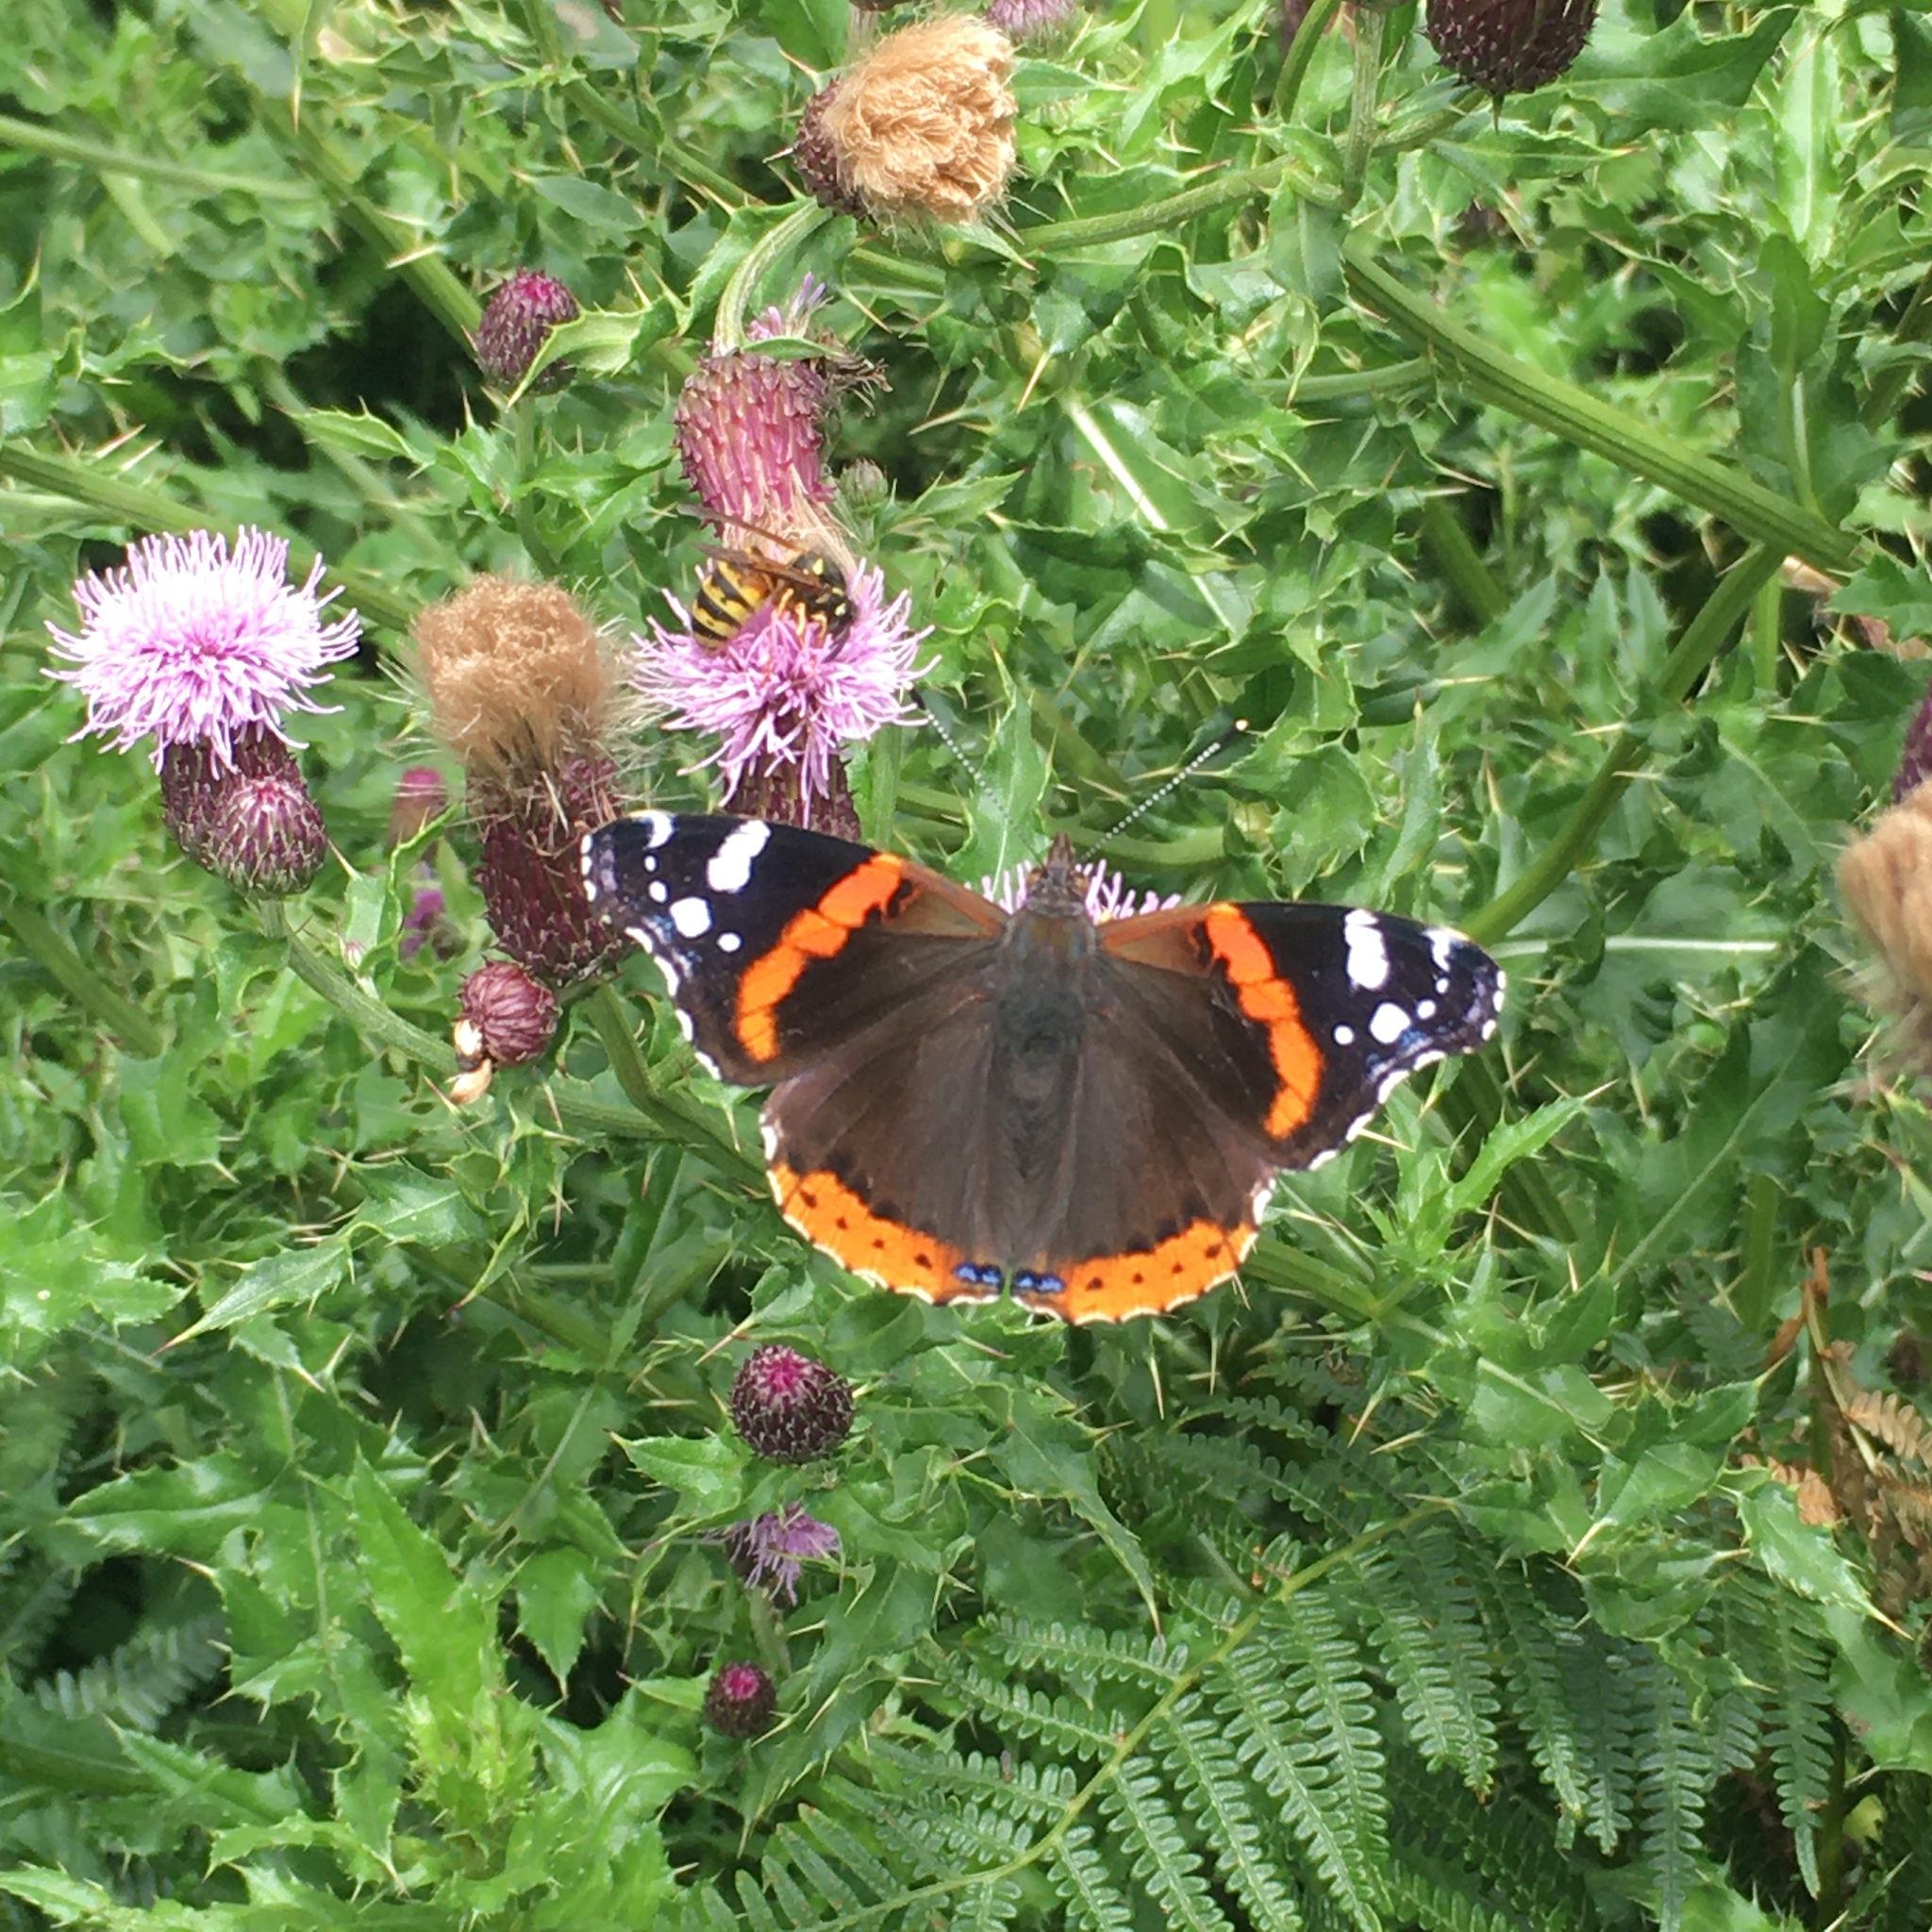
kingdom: Animalia
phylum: Arthropoda
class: Insecta
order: Lepidoptera
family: Nymphalidae
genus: Vanessa
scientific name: Vanessa atalanta
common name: Red admiral
